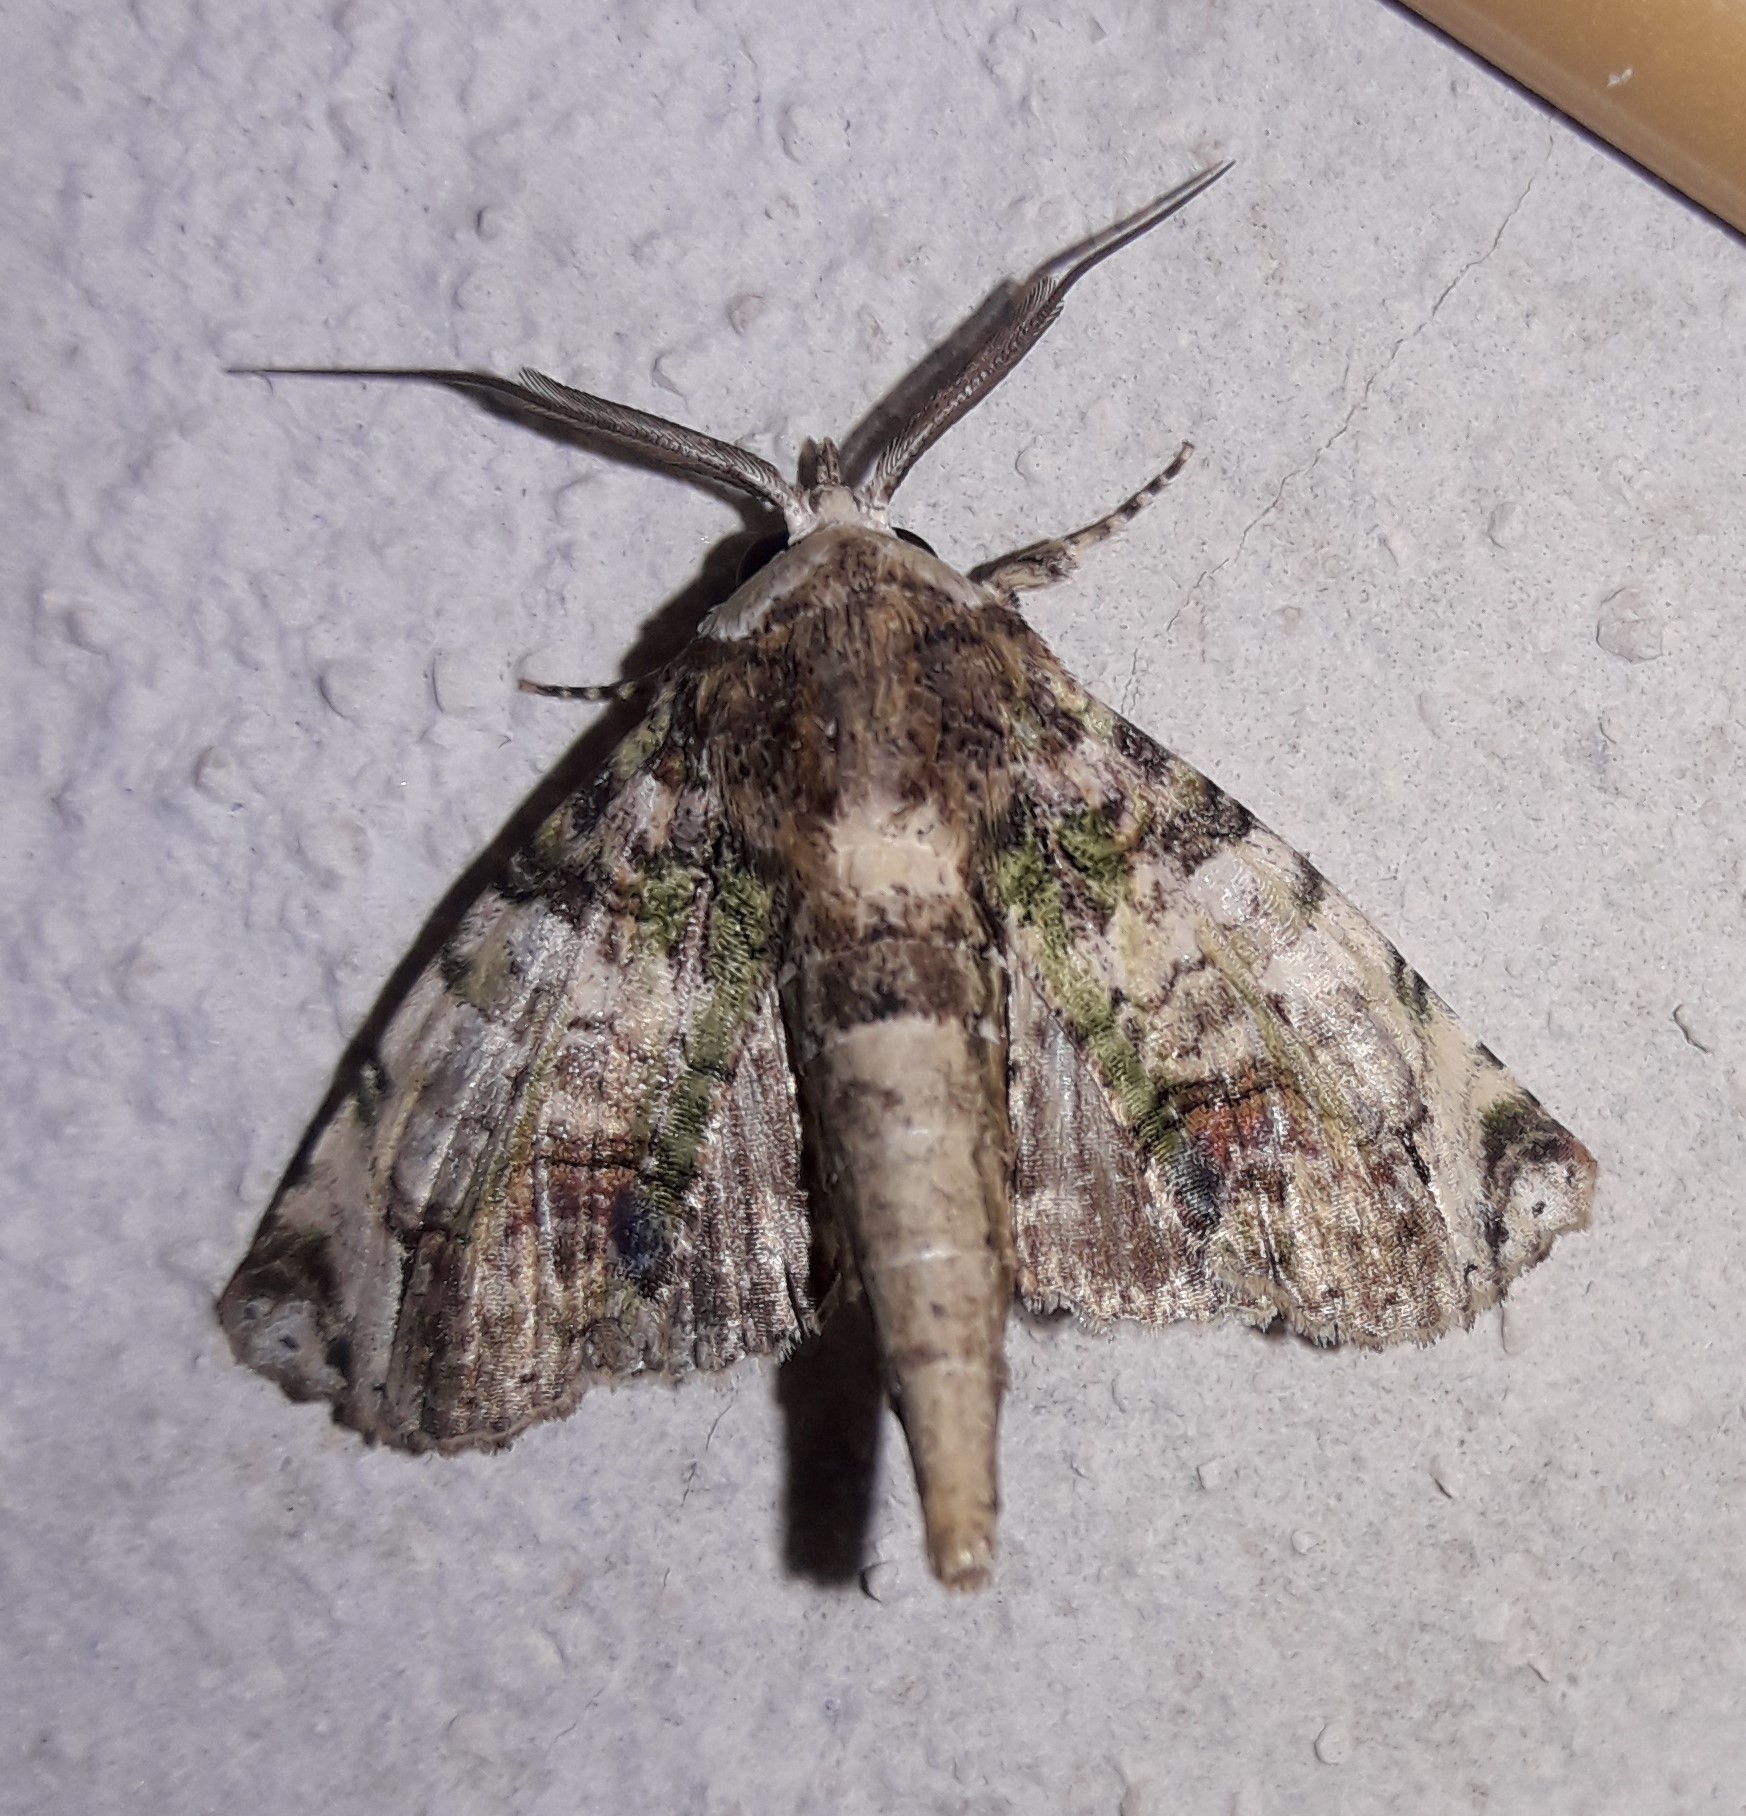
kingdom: Animalia
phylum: Arthropoda
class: Insecta
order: Lepidoptera
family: Euteliidae
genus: Paectes
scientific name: Paectes canofusa
